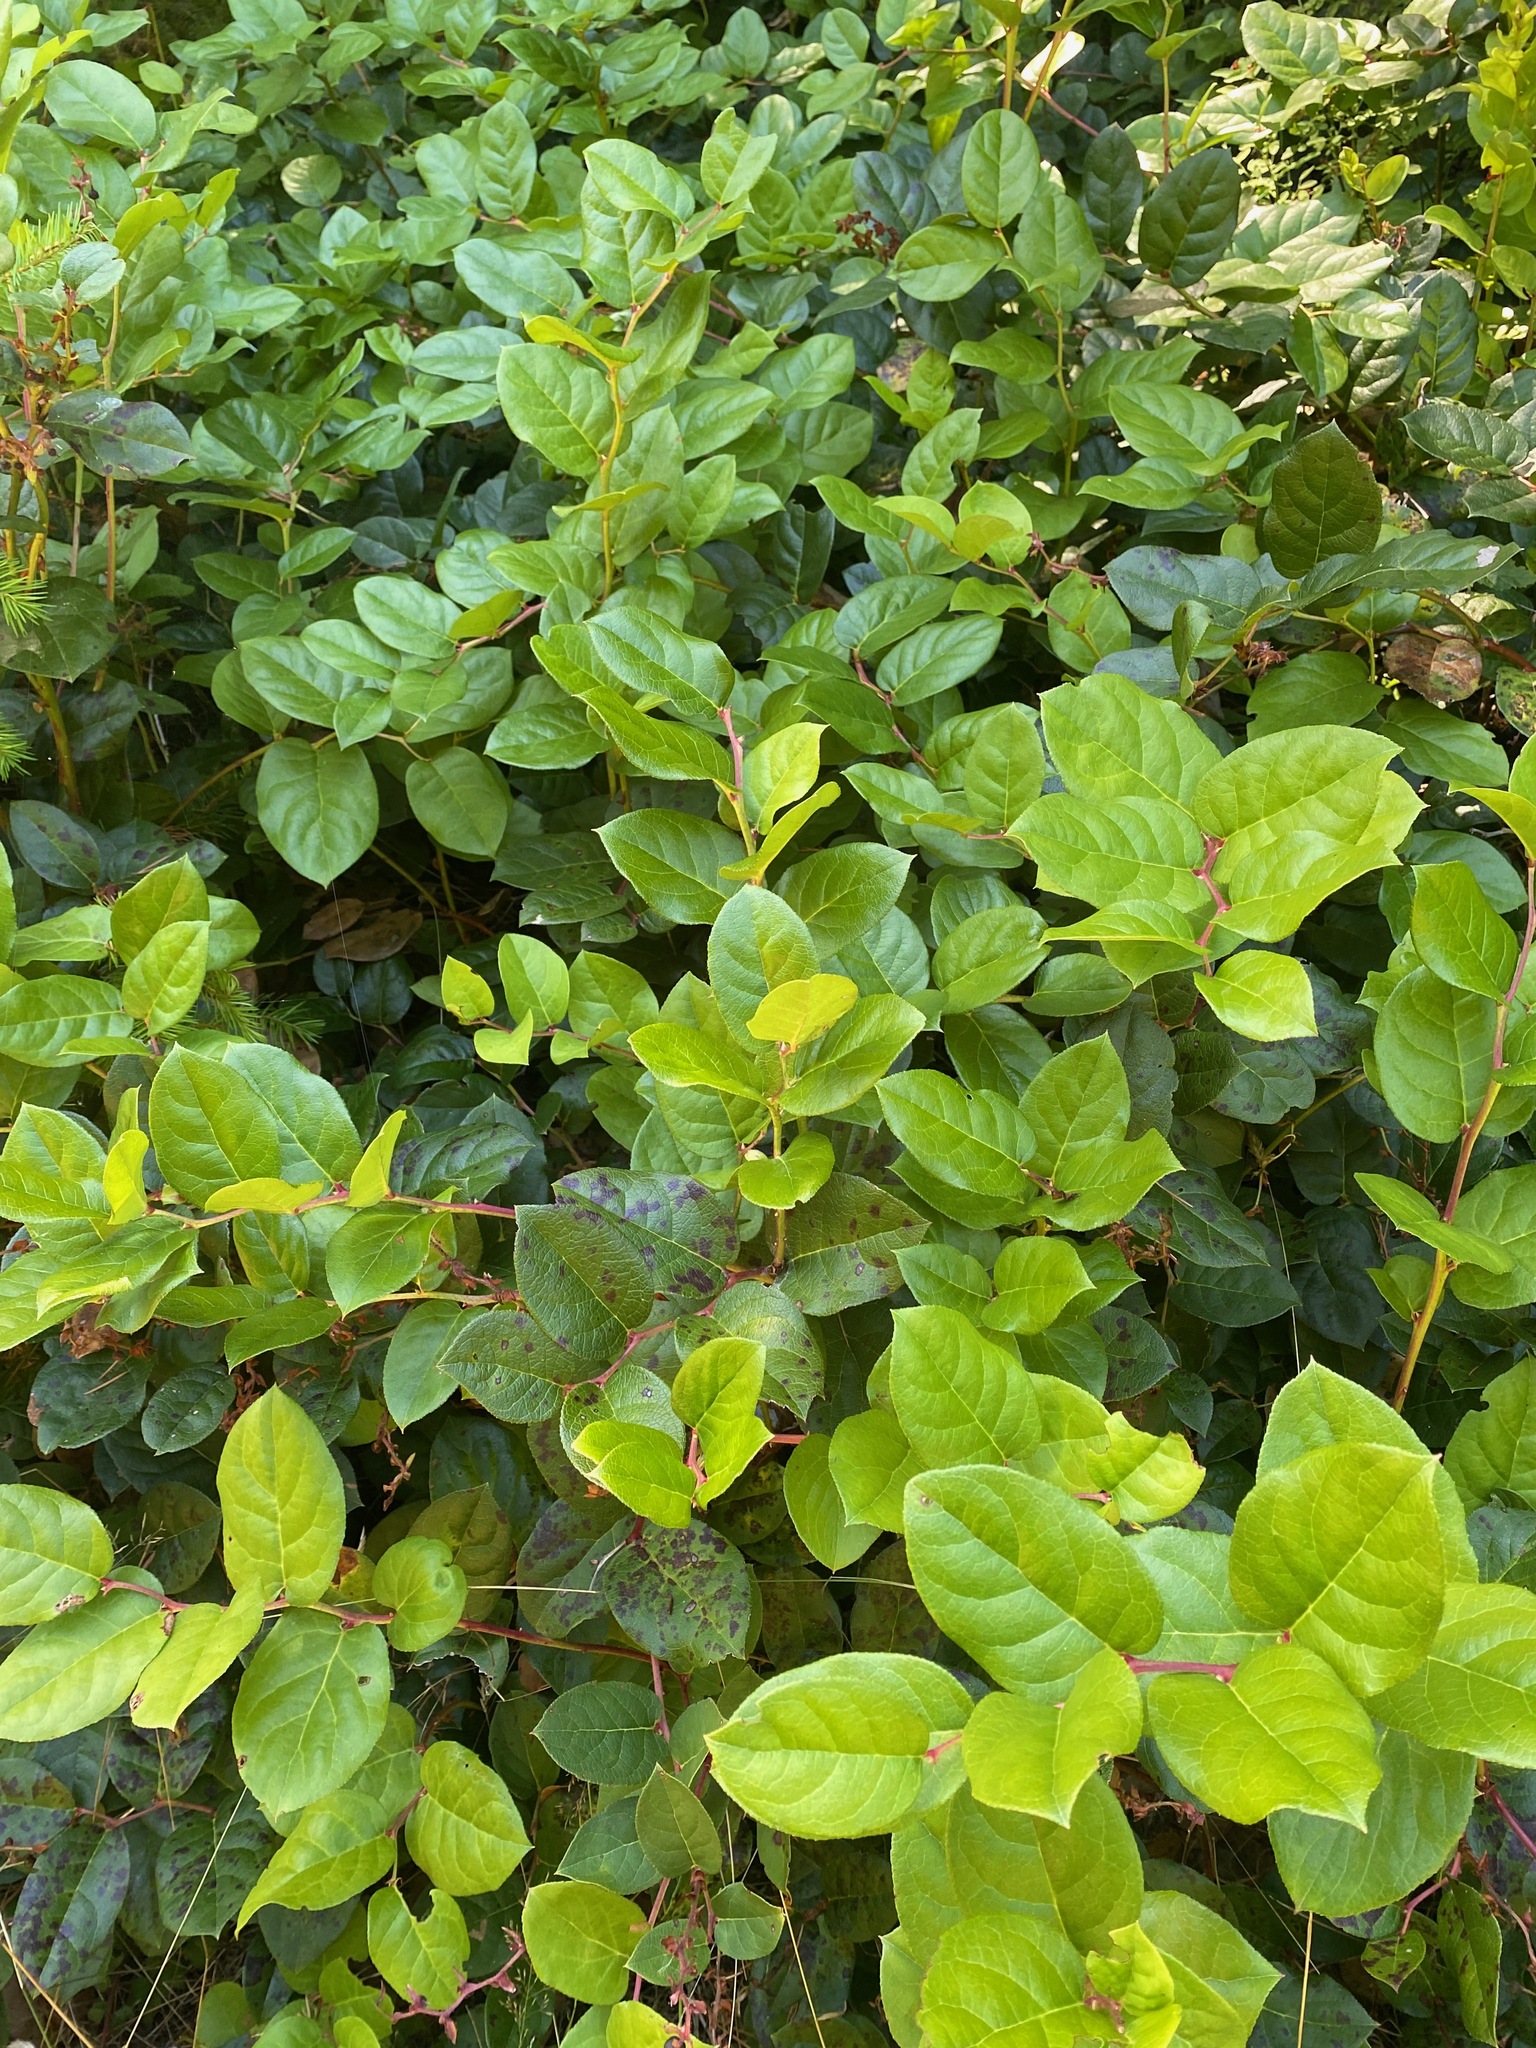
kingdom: Plantae
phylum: Tracheophyta
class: Magnoliopsida
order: Ericales
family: Ericaceae
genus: Gaultheria
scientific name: Gaultheria shallon
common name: Shallon
